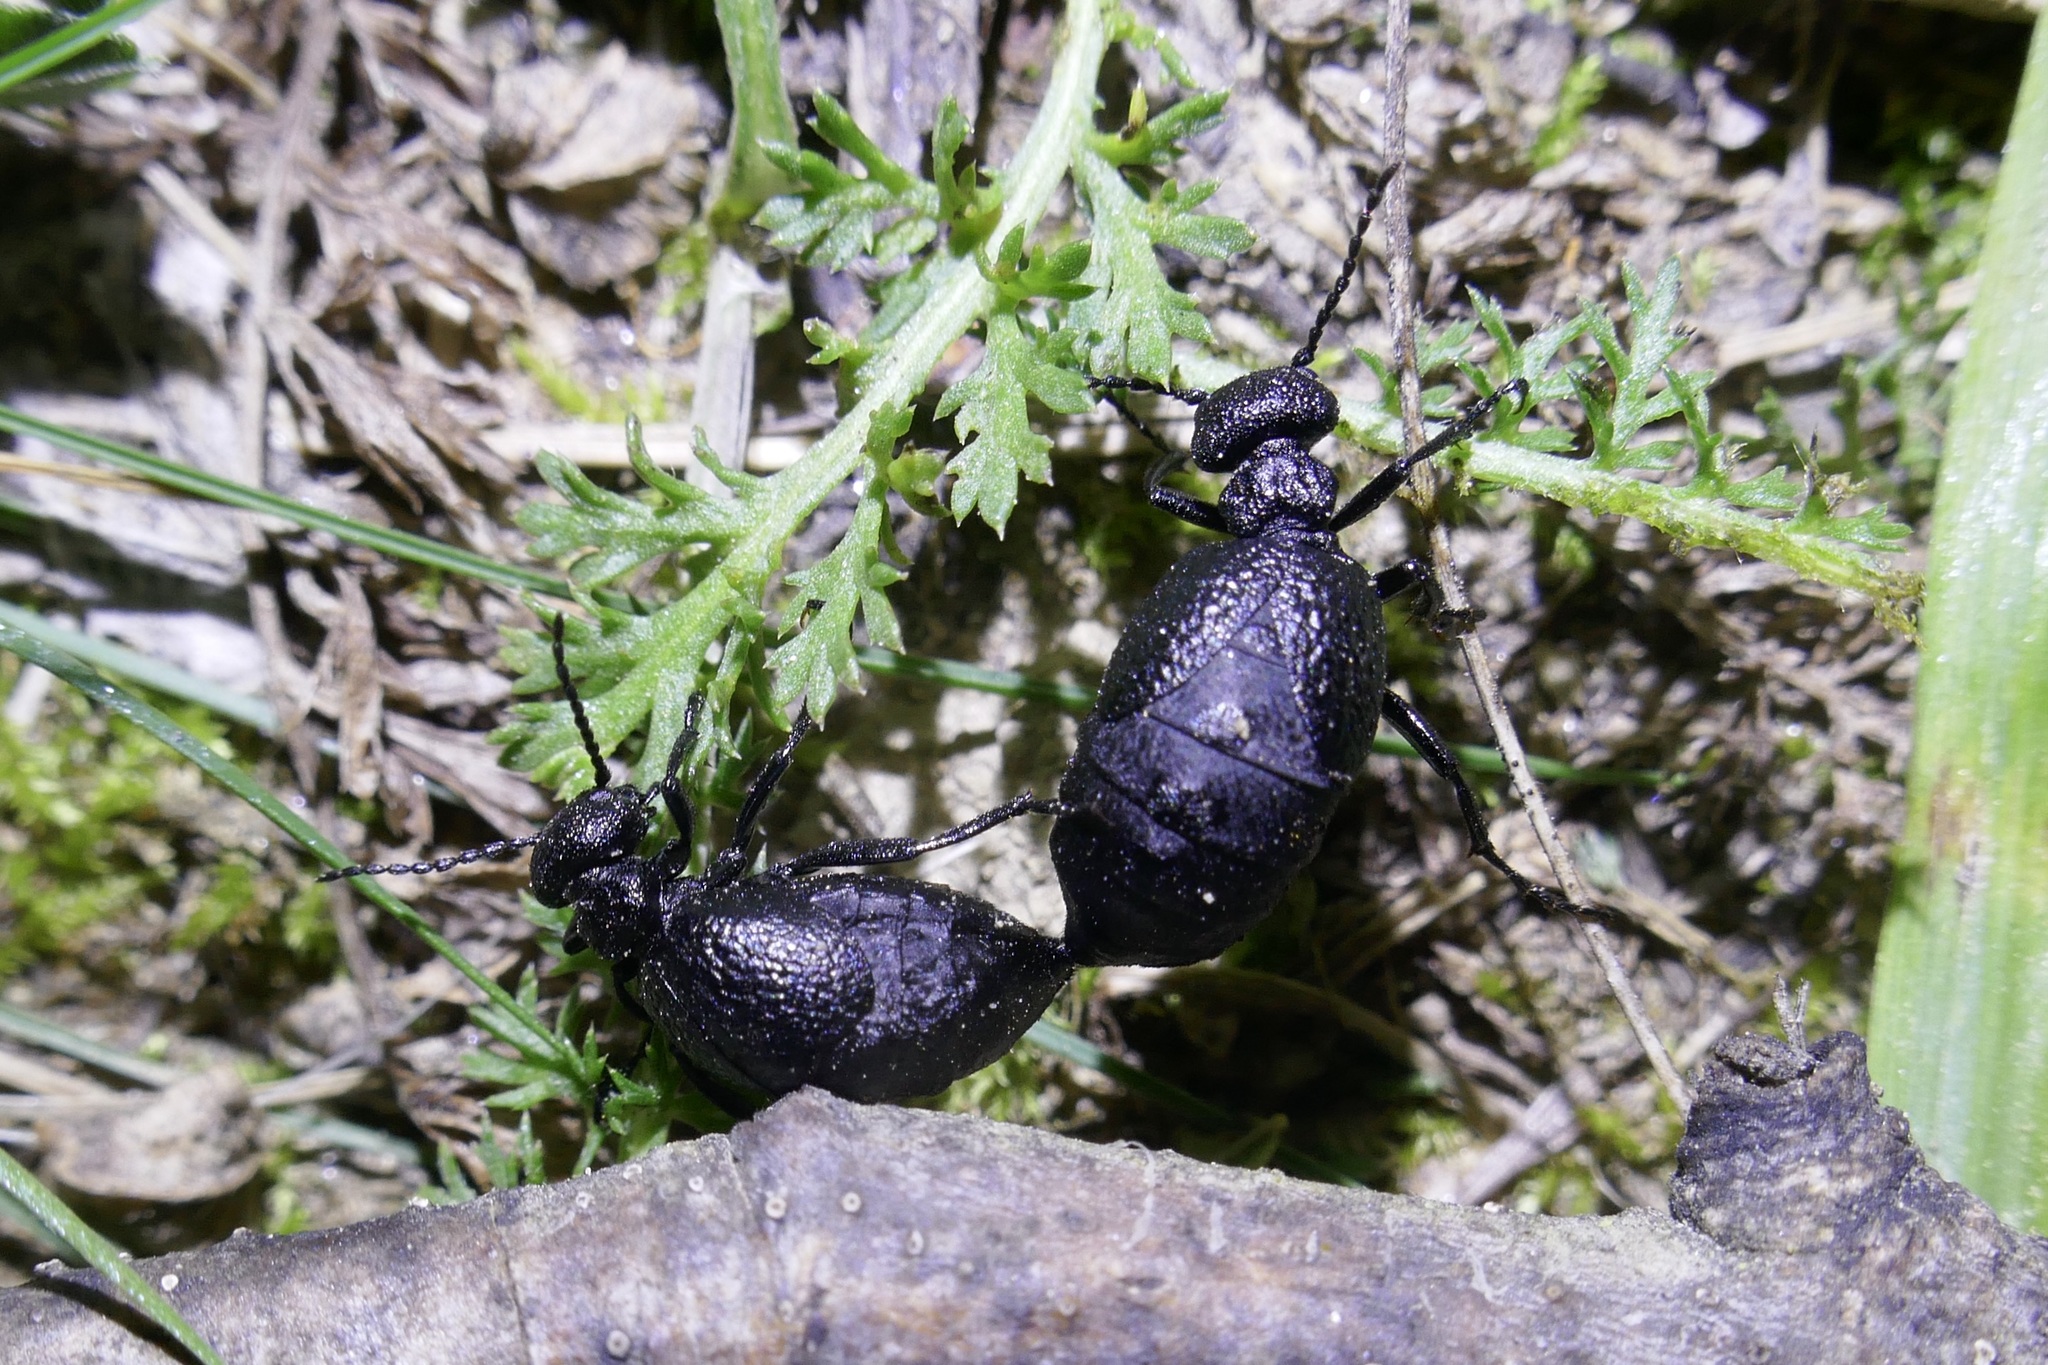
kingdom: Animalia
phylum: Arthropoda
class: Insecta
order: Coleoptera
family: Meloidae
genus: Meloe
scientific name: Meloe rugosus
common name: Rugged oil-beetle
